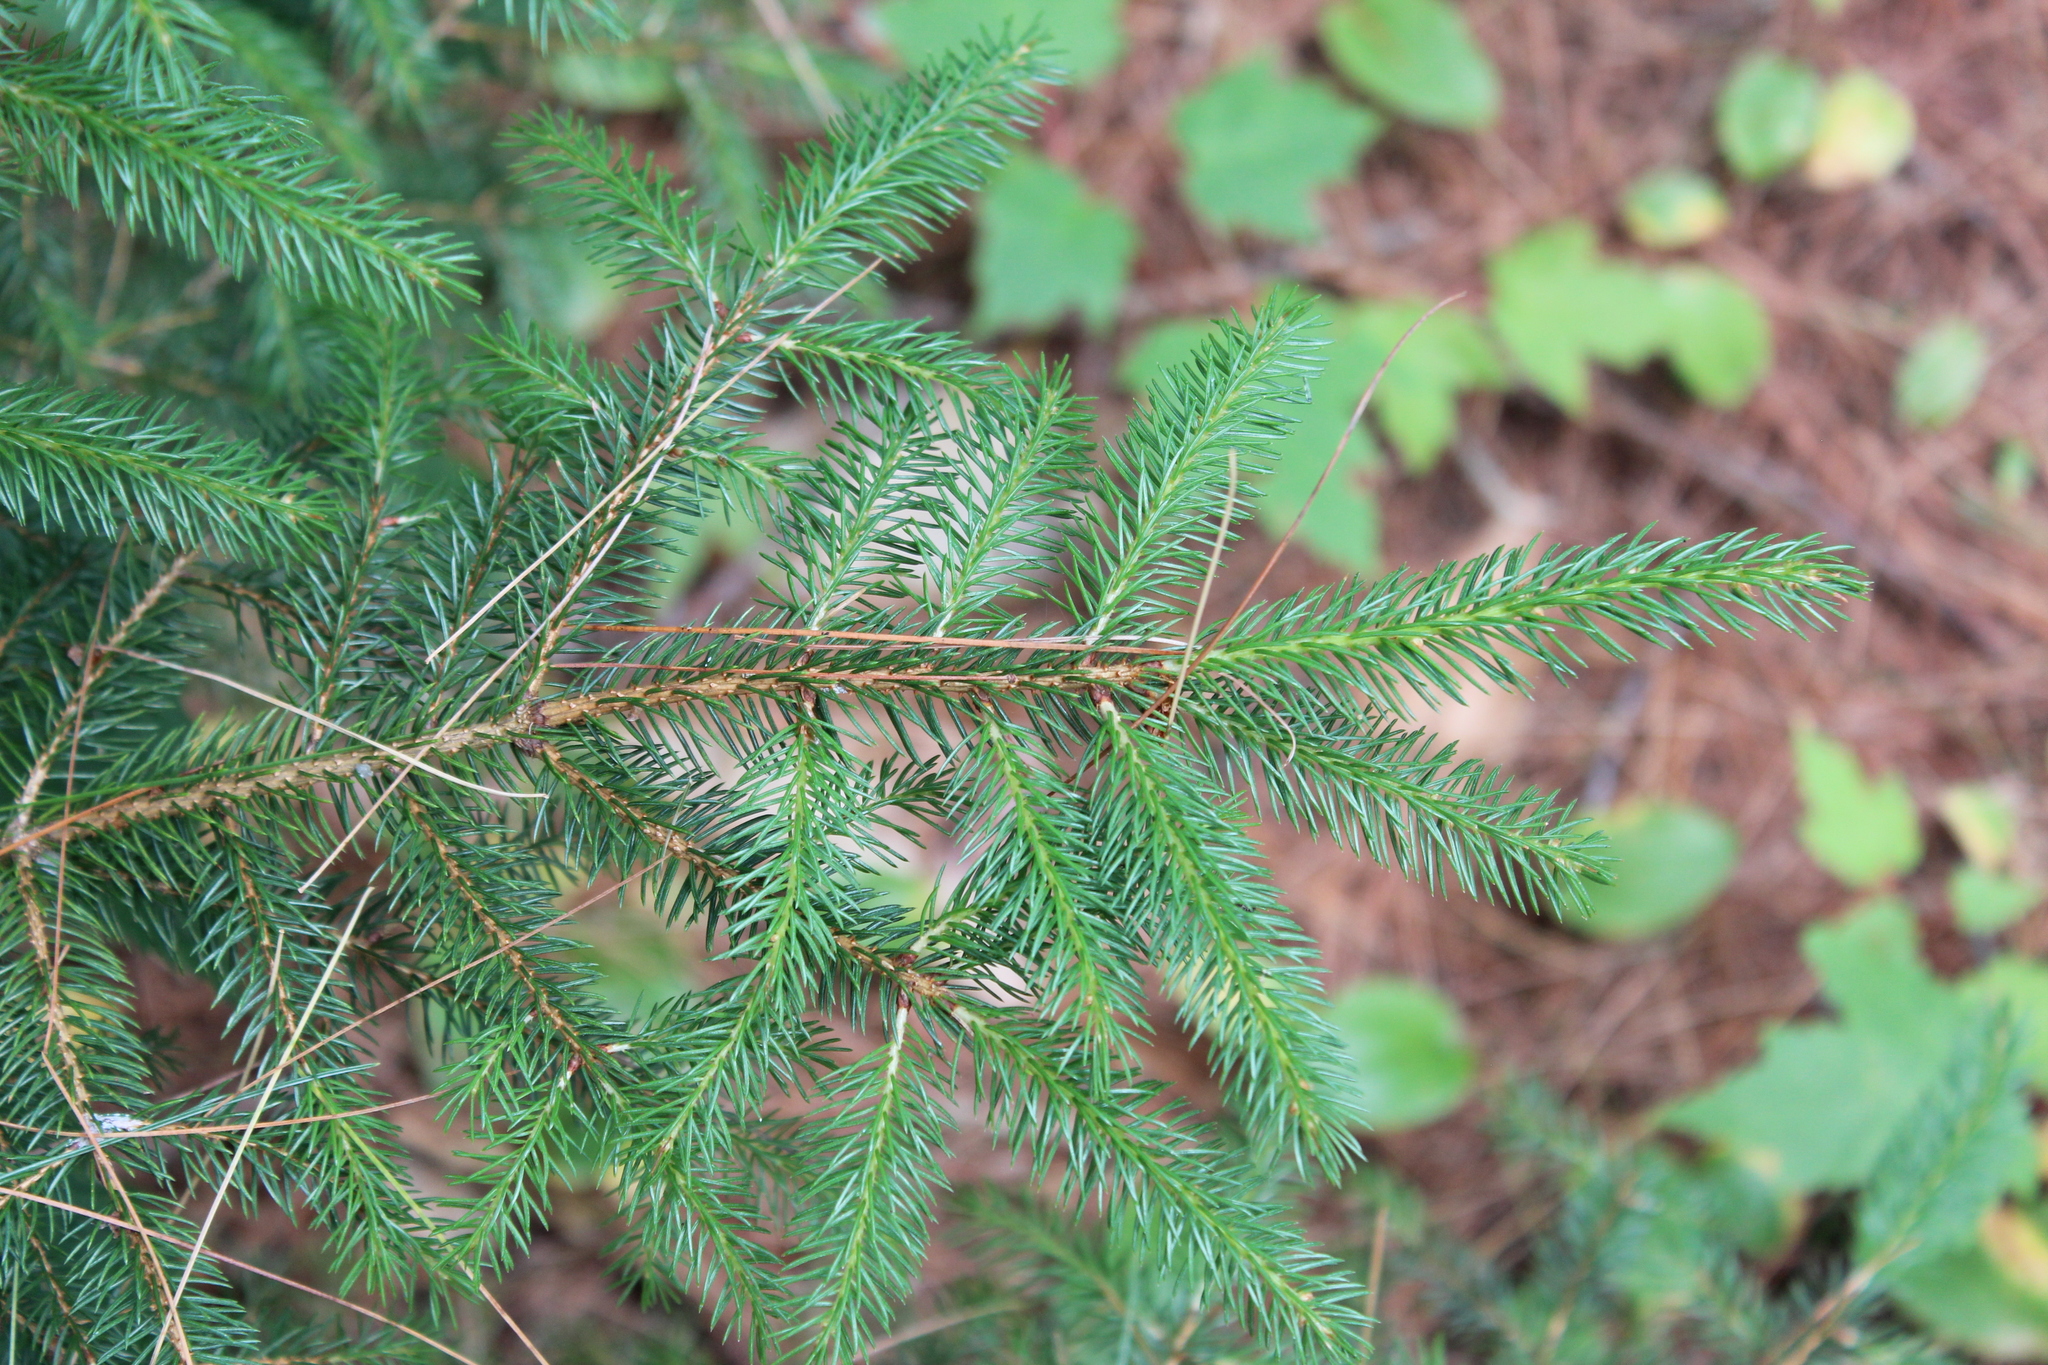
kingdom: Plantae
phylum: Tracheophyta
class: Pinopsida
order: Pinales
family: Pinaceae
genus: Picea
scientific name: Picea rubens
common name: Red spruce
